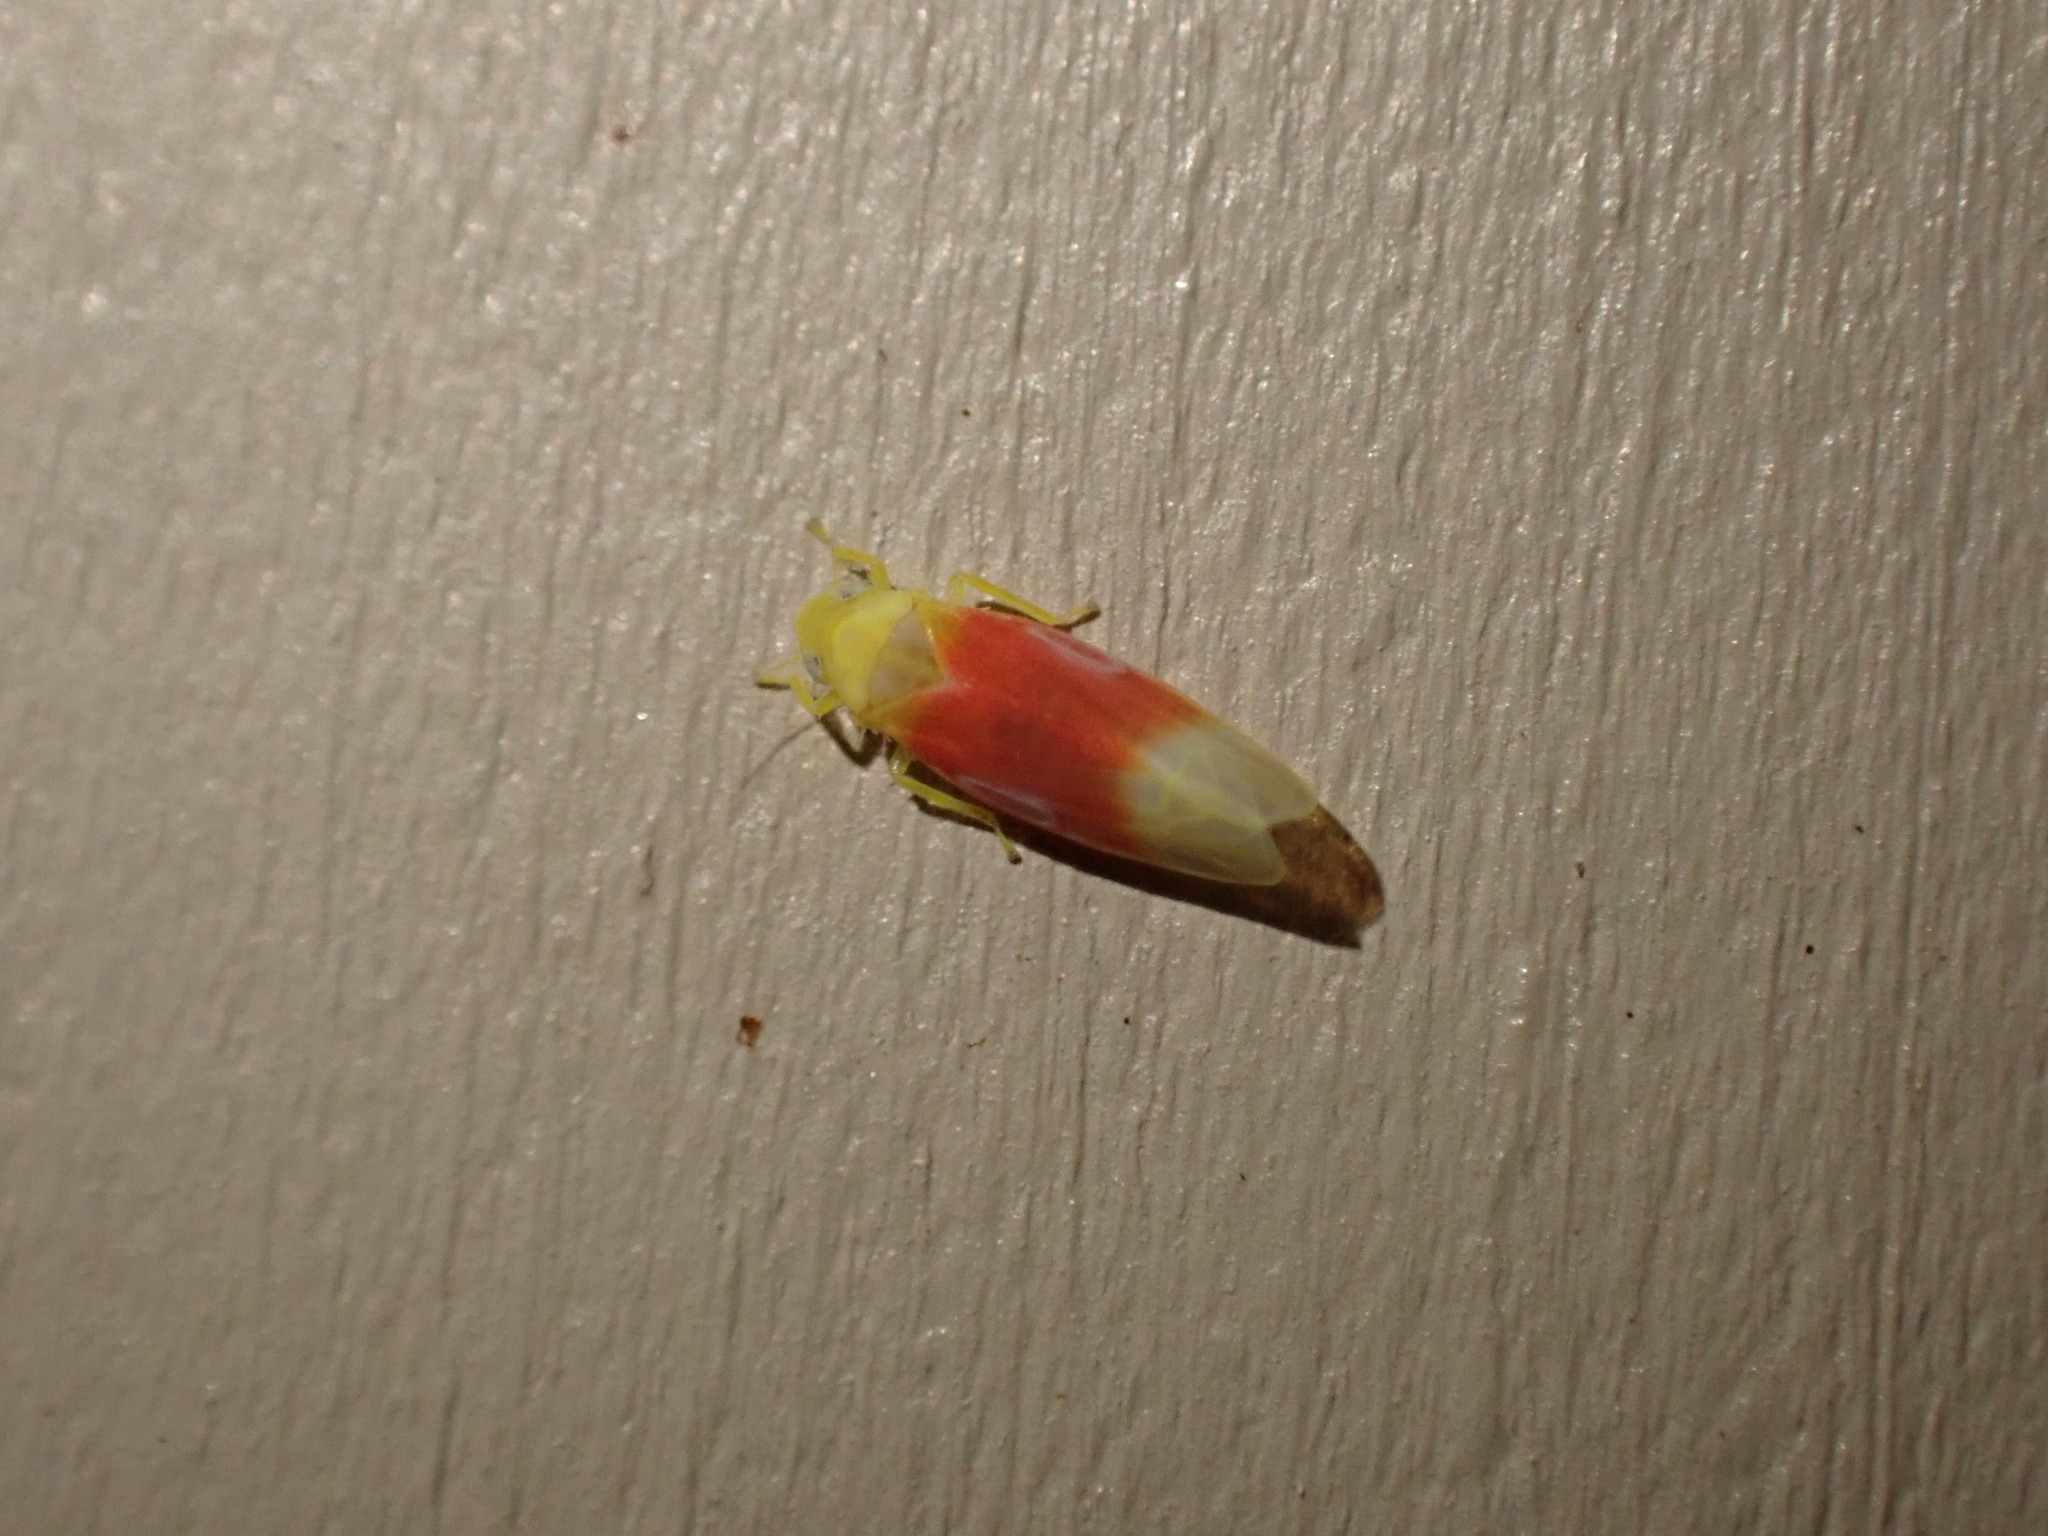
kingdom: Animalia
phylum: Arthropoda
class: Insecta
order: Hemiptera
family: Cicadellidae
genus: Ossiannilssonola
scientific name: Ossiannilssonola tunicarubra
